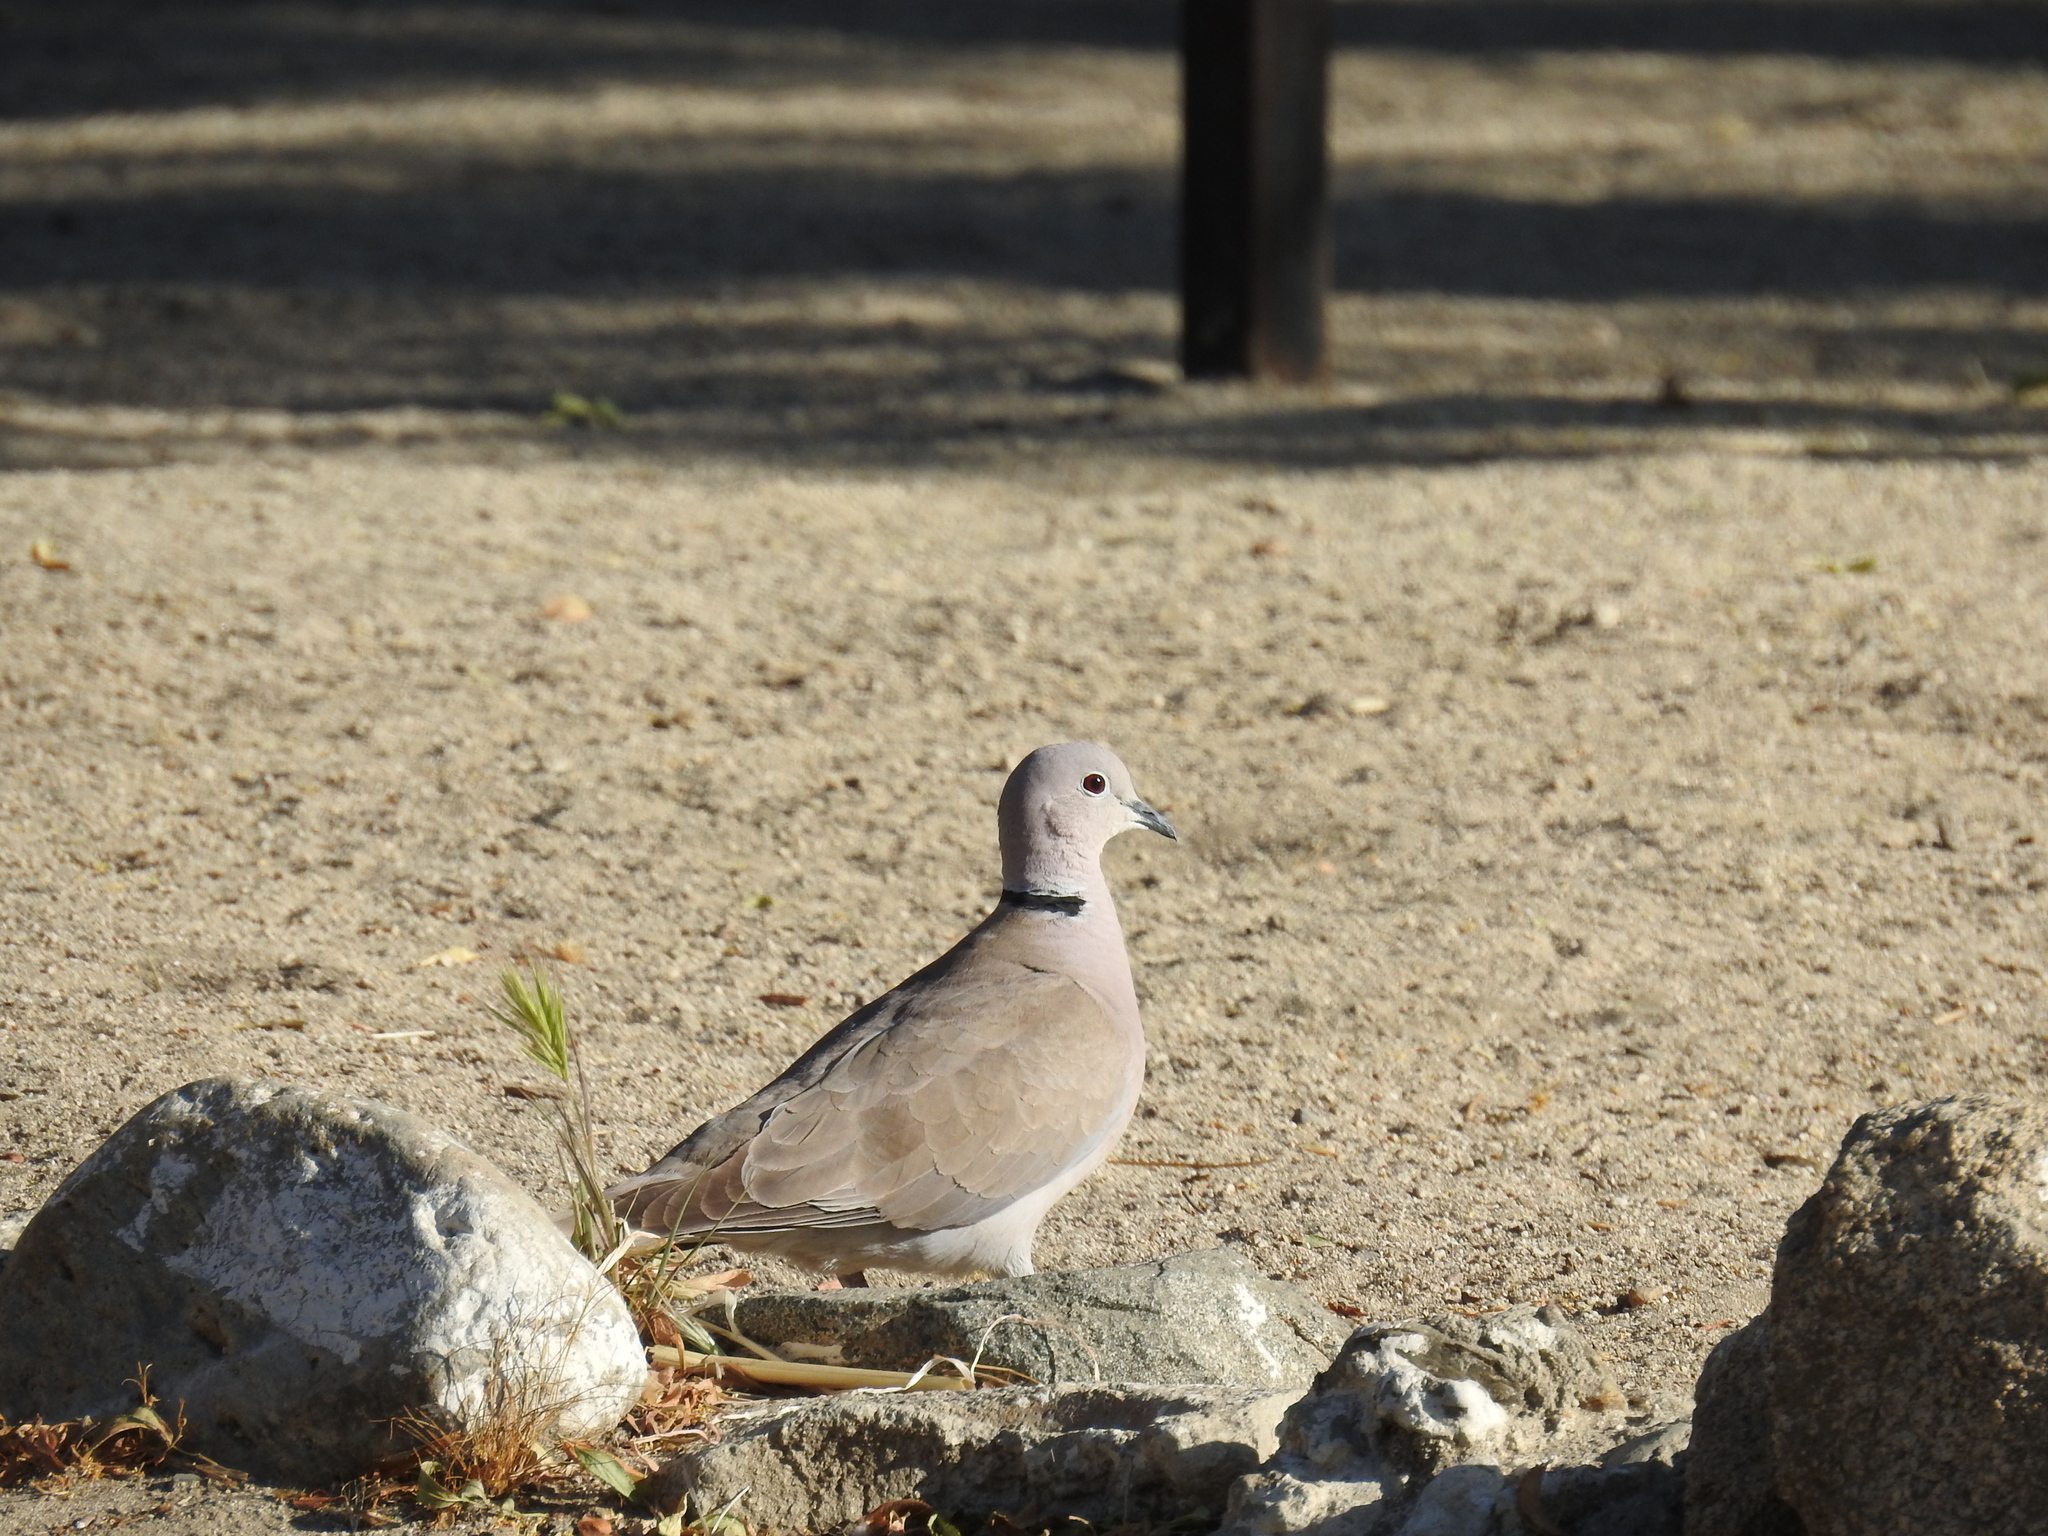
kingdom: Animalia
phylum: Chordata
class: Aves
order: Columbiformes
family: Columbidae
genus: Streptopelia
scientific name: Streptopelia decaocto
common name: Eurasian collared dove
